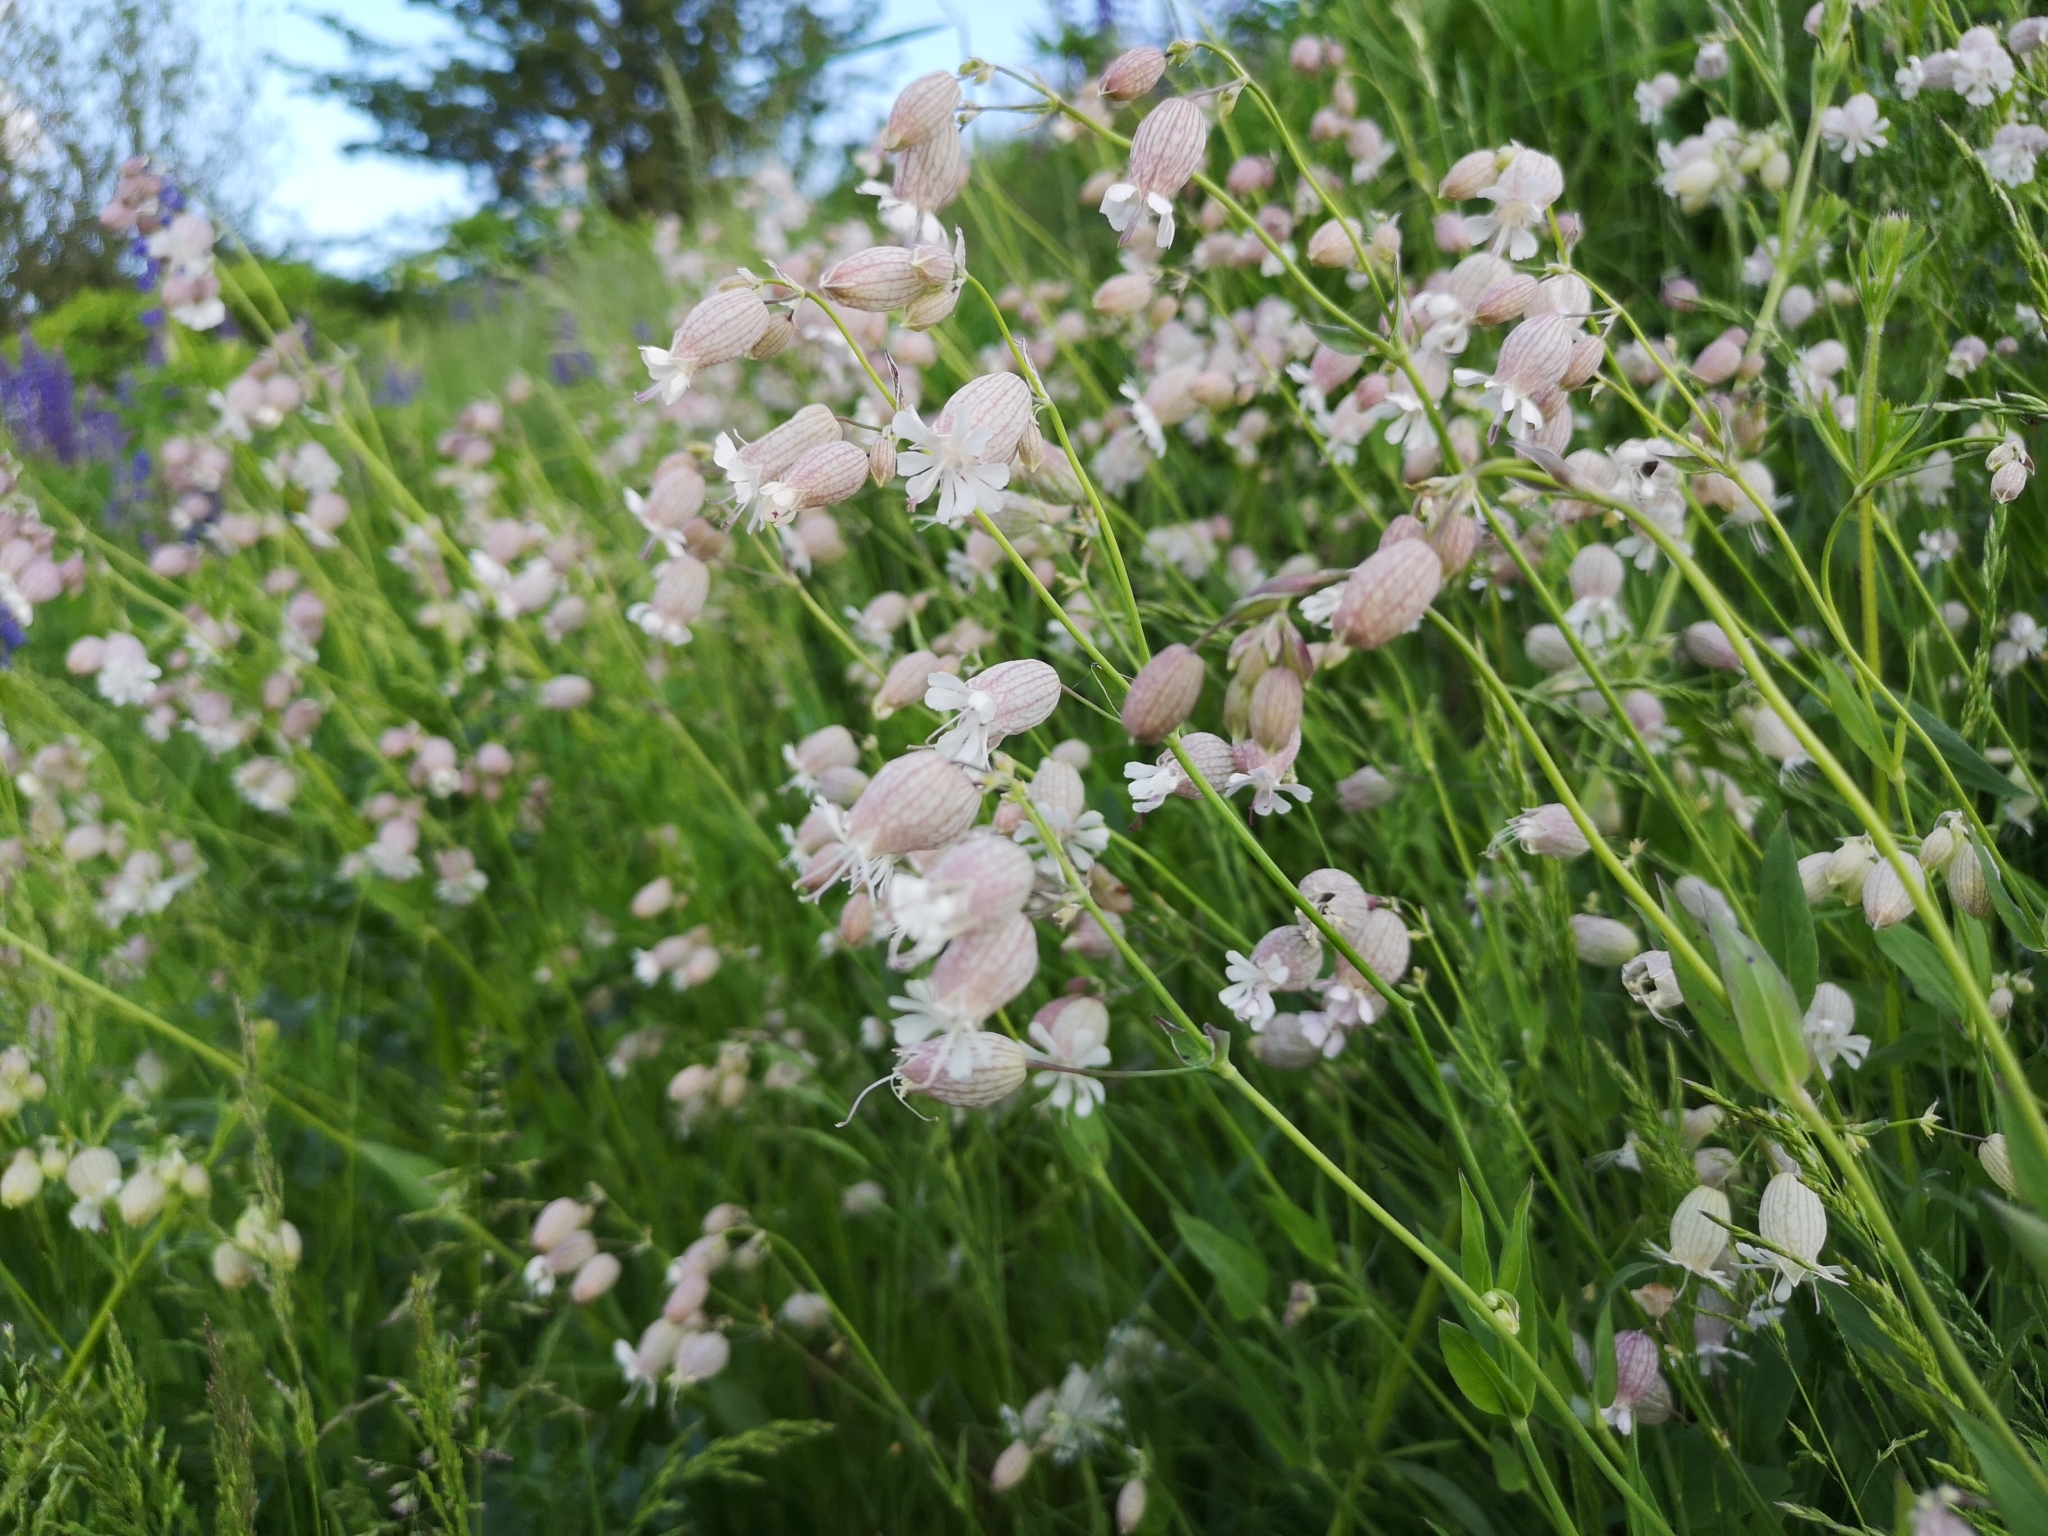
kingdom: Plantae
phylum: Tracheophyta
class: Magnoliopsida
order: Caryophyllales
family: Caryophyllaceae
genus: Silene
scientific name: Silene vulgaris
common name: Bladder campion
